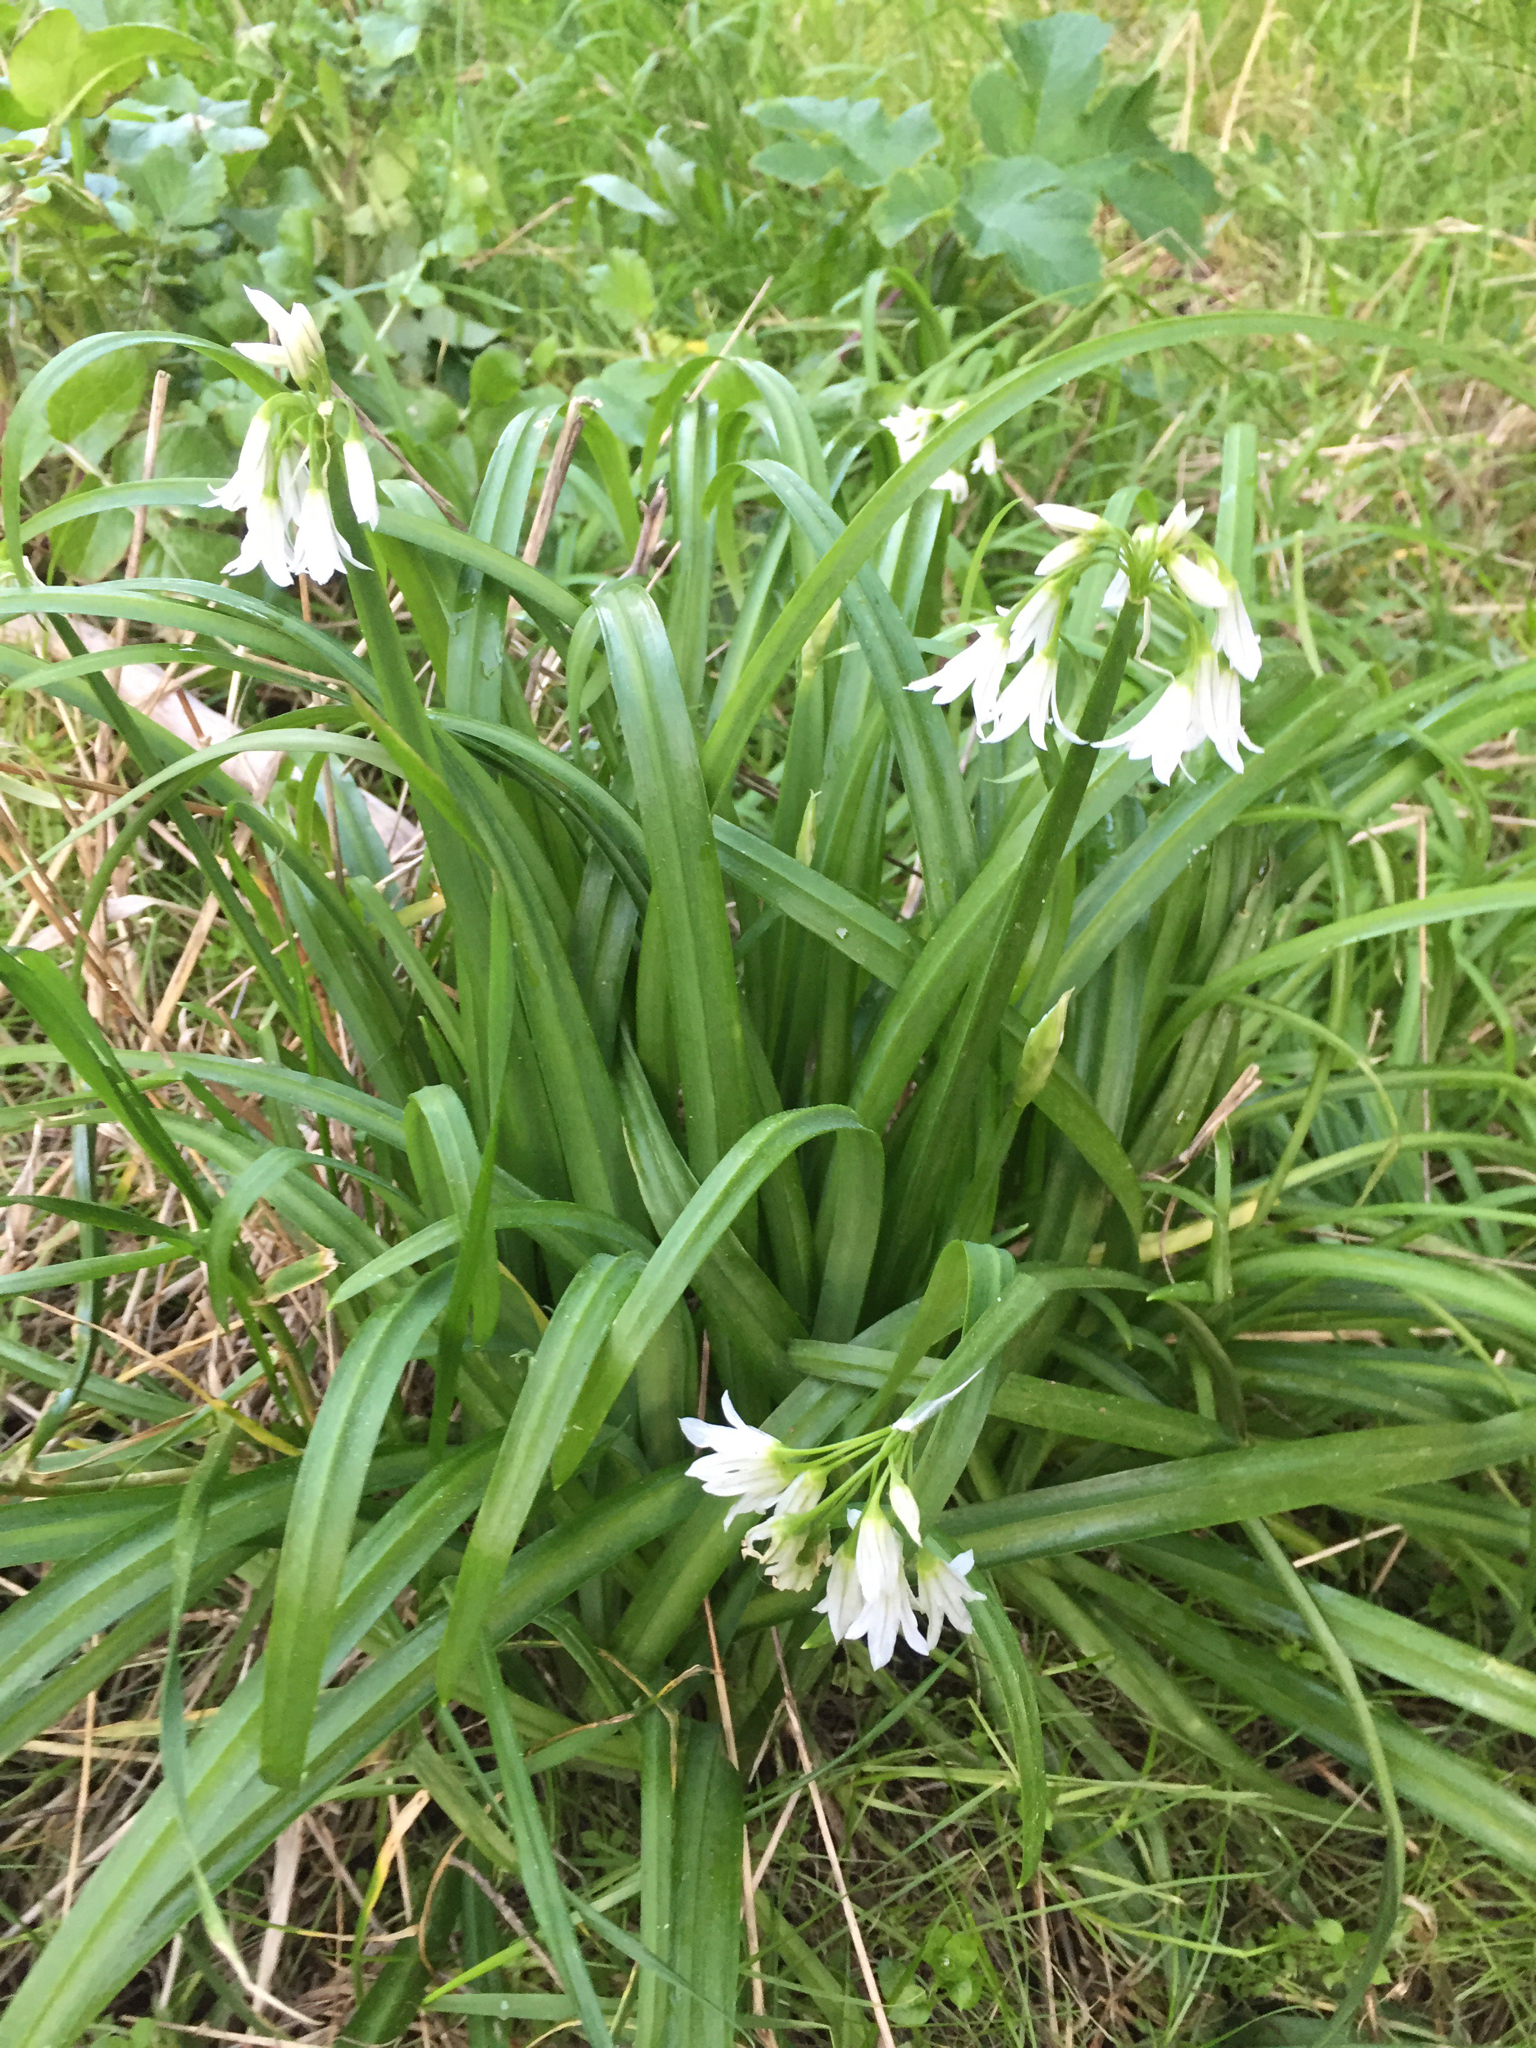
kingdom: Plantae
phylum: Tracheophyta
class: Liliopsida
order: Asparagales
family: Amaryllidaceae
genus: Allium
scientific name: Allium triquetrum
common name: Three-cornered garlic
